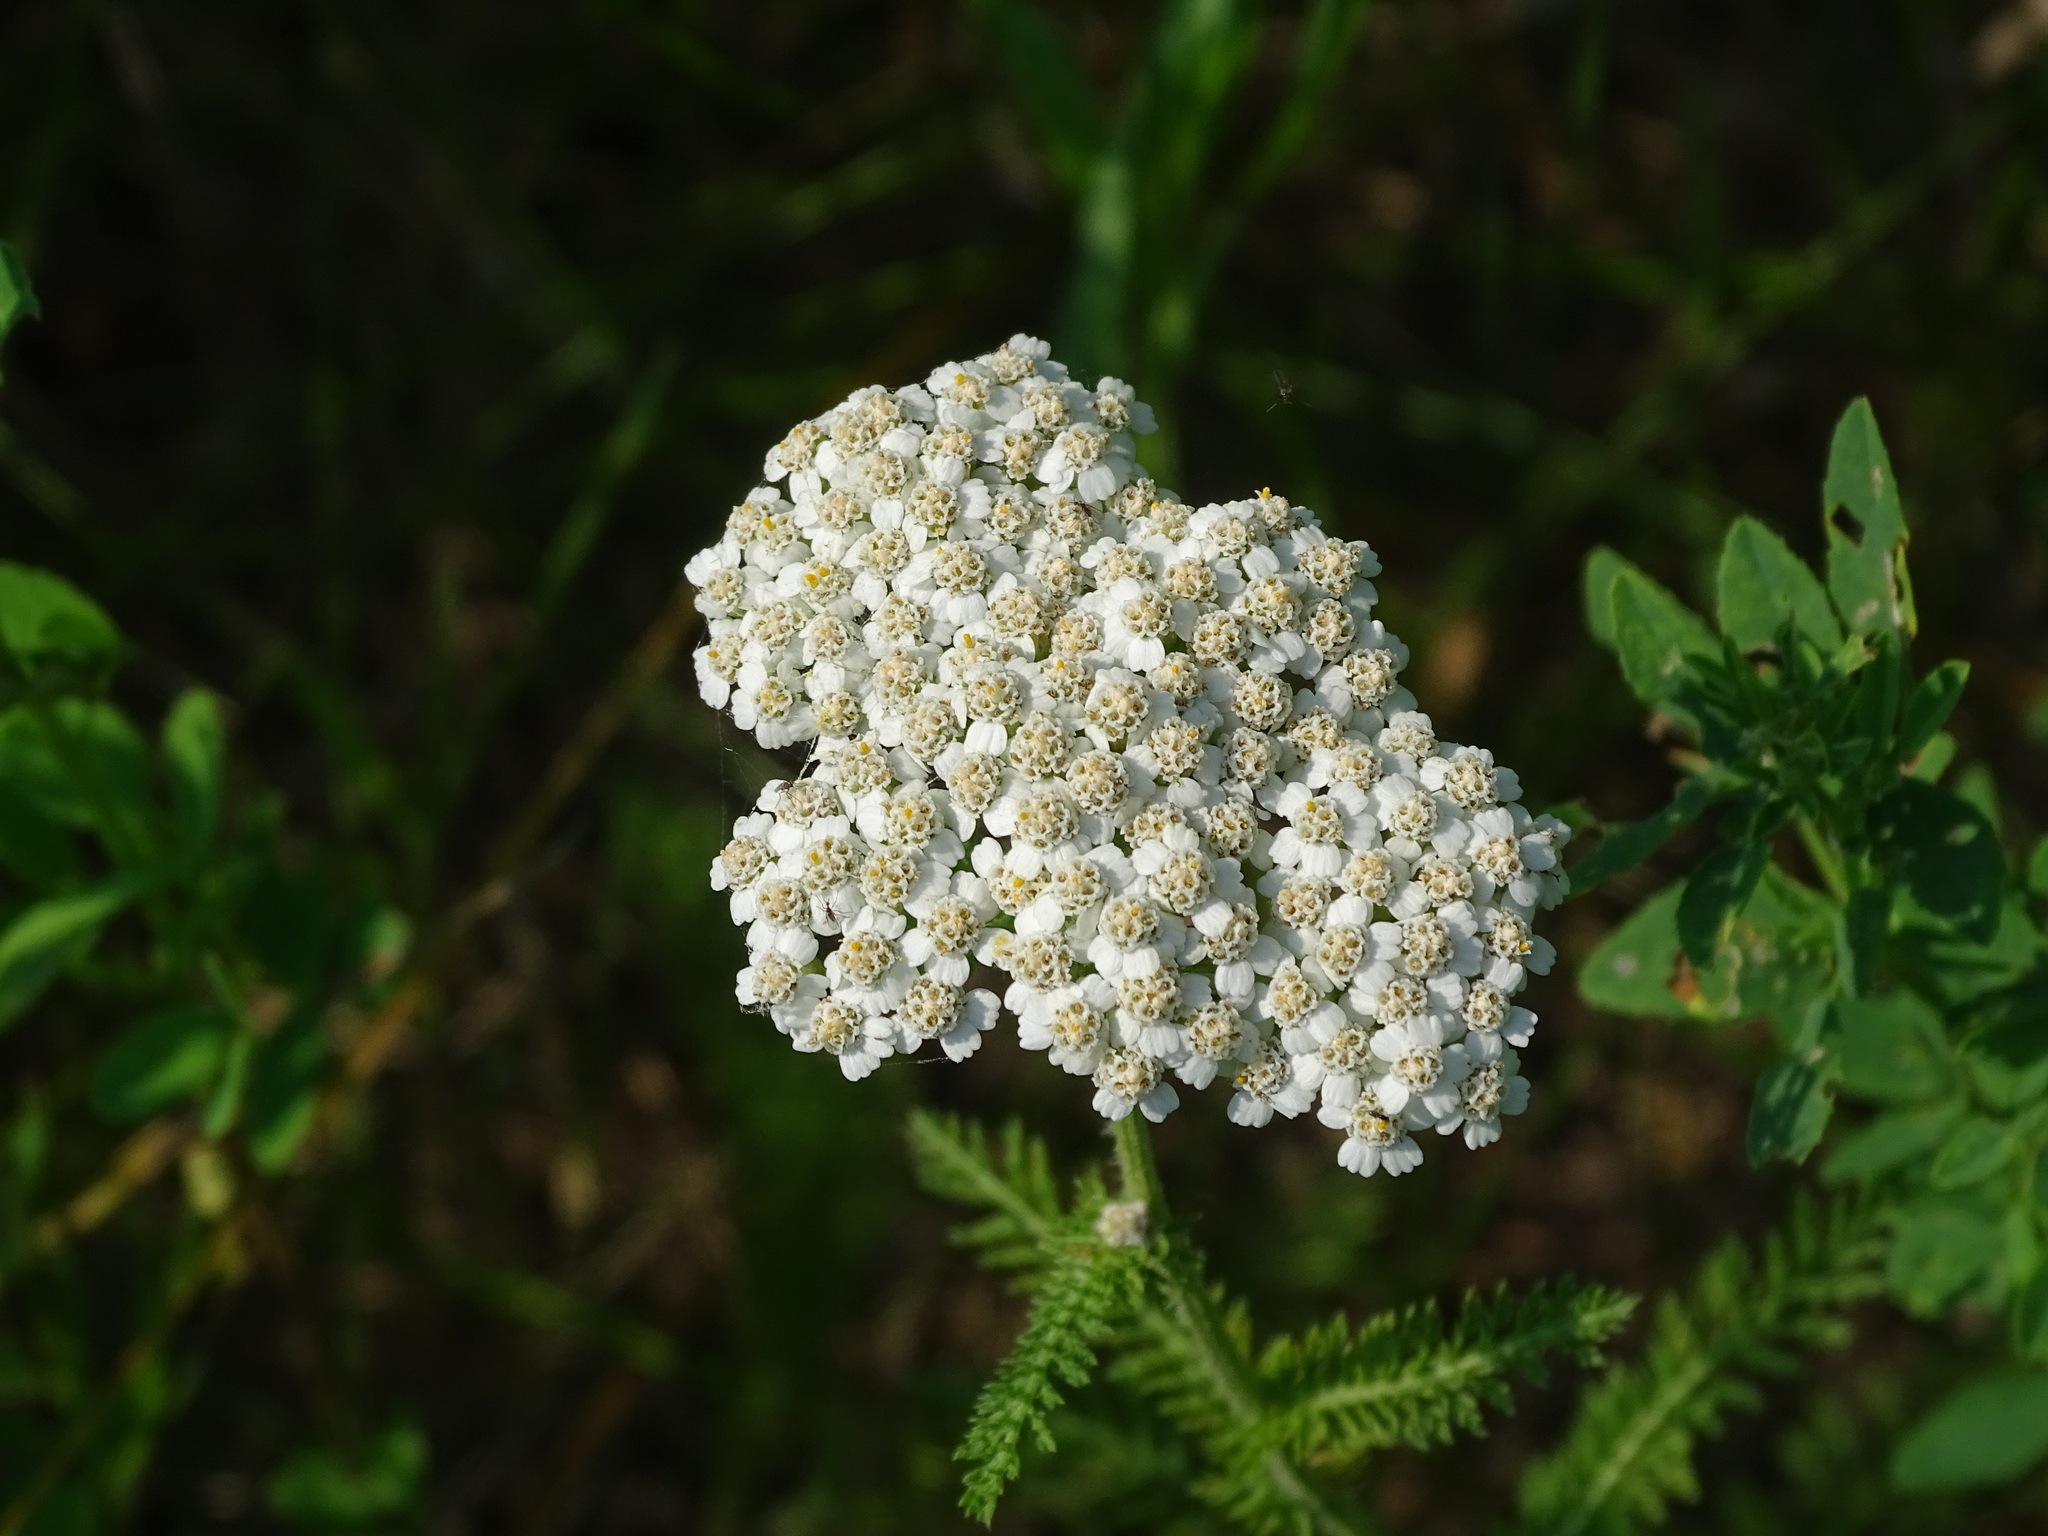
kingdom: Plantae
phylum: Tracheophyta
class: Magnoliopsida
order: Asterales
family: Asteraceae
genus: Achillea
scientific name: Achillea millefolium
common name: Yarrow
